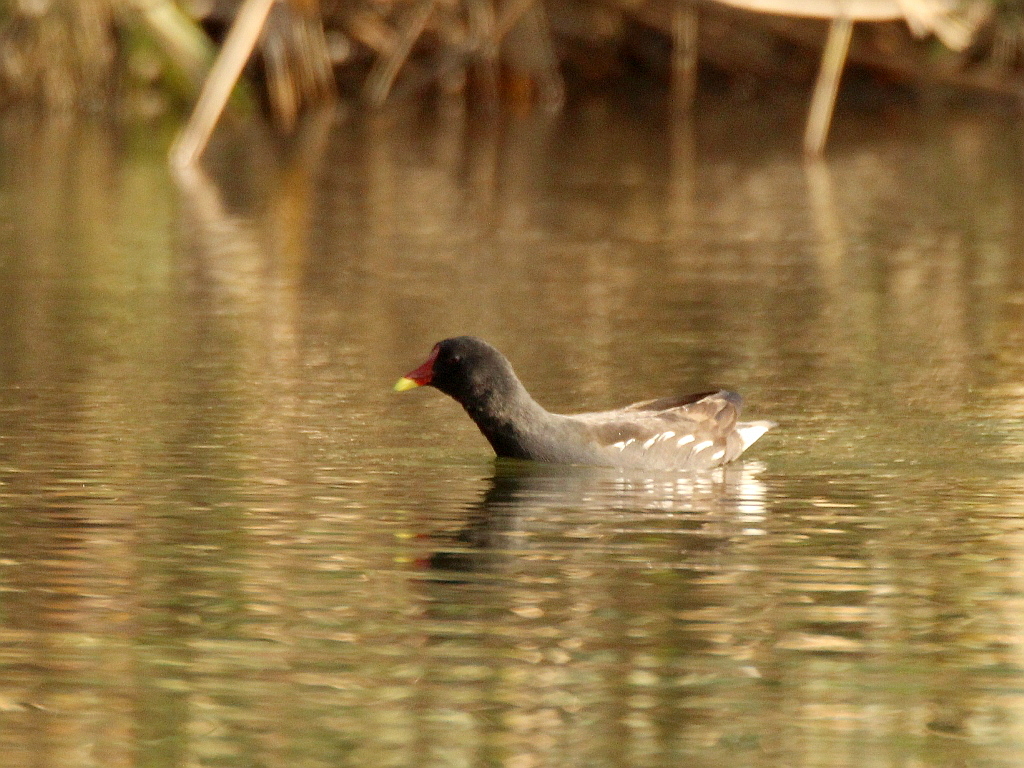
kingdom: Animalia
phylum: Chordata
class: Aves
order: Gruiformes
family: Rallidae
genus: Gallinula
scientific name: Gallinula chloropus
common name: Common moorhen
